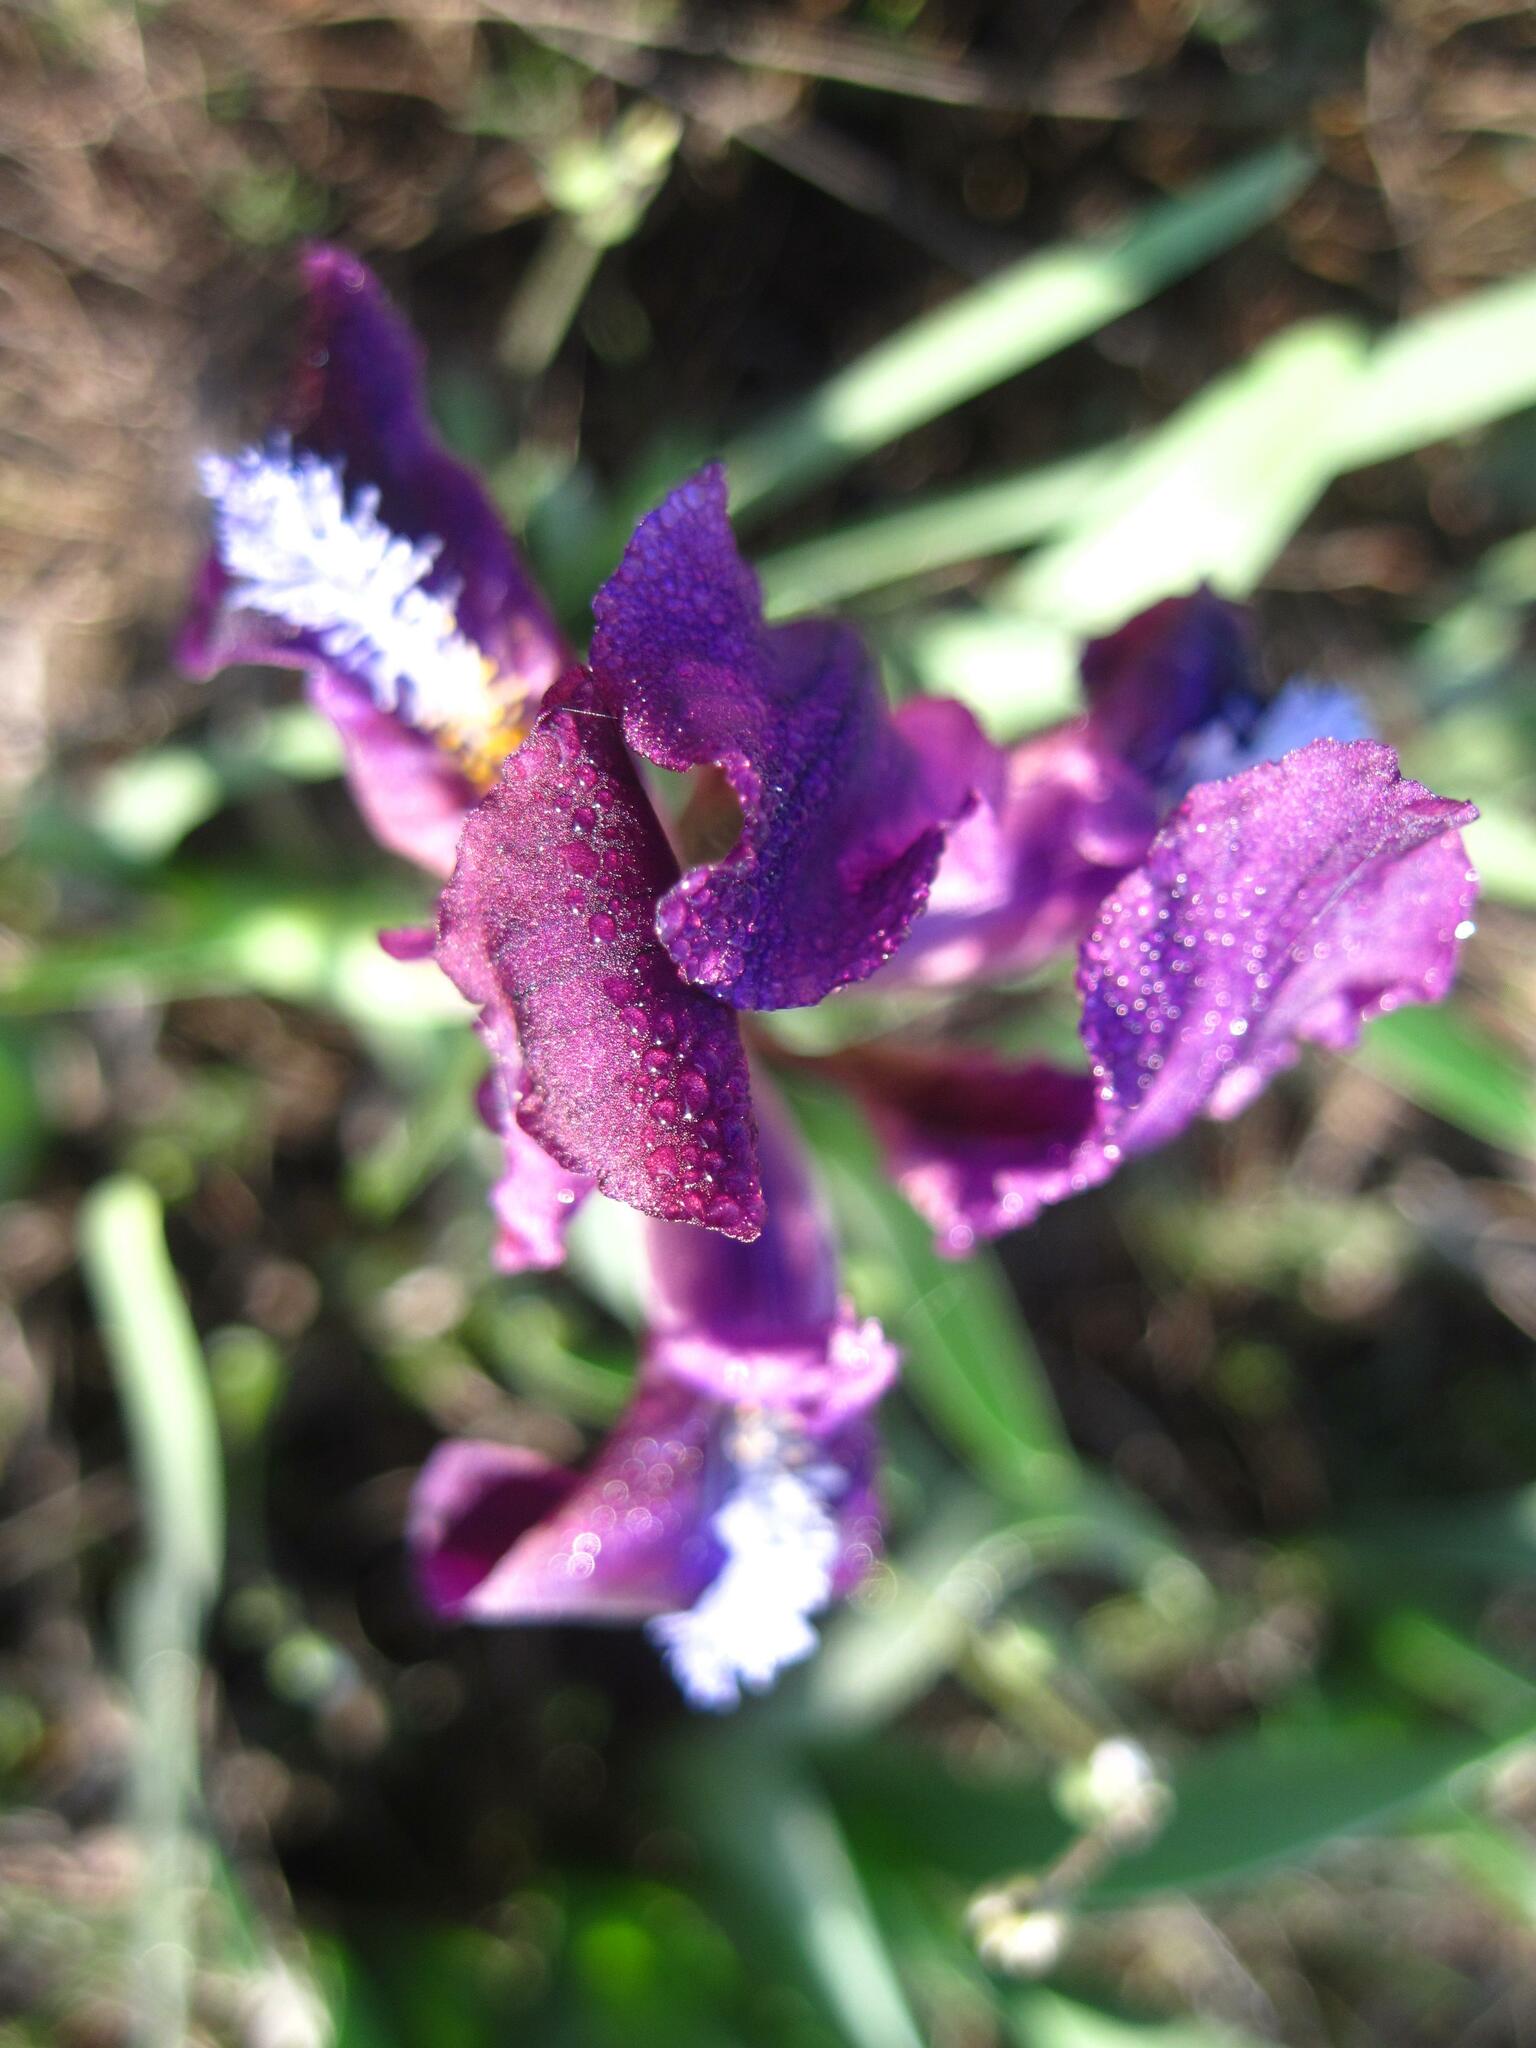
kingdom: Plantae
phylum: Tracheophyta
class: Liliopsida
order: Asparagales
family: Iridaceae
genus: Iris
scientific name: Iris pumila
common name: Dwarf iris
